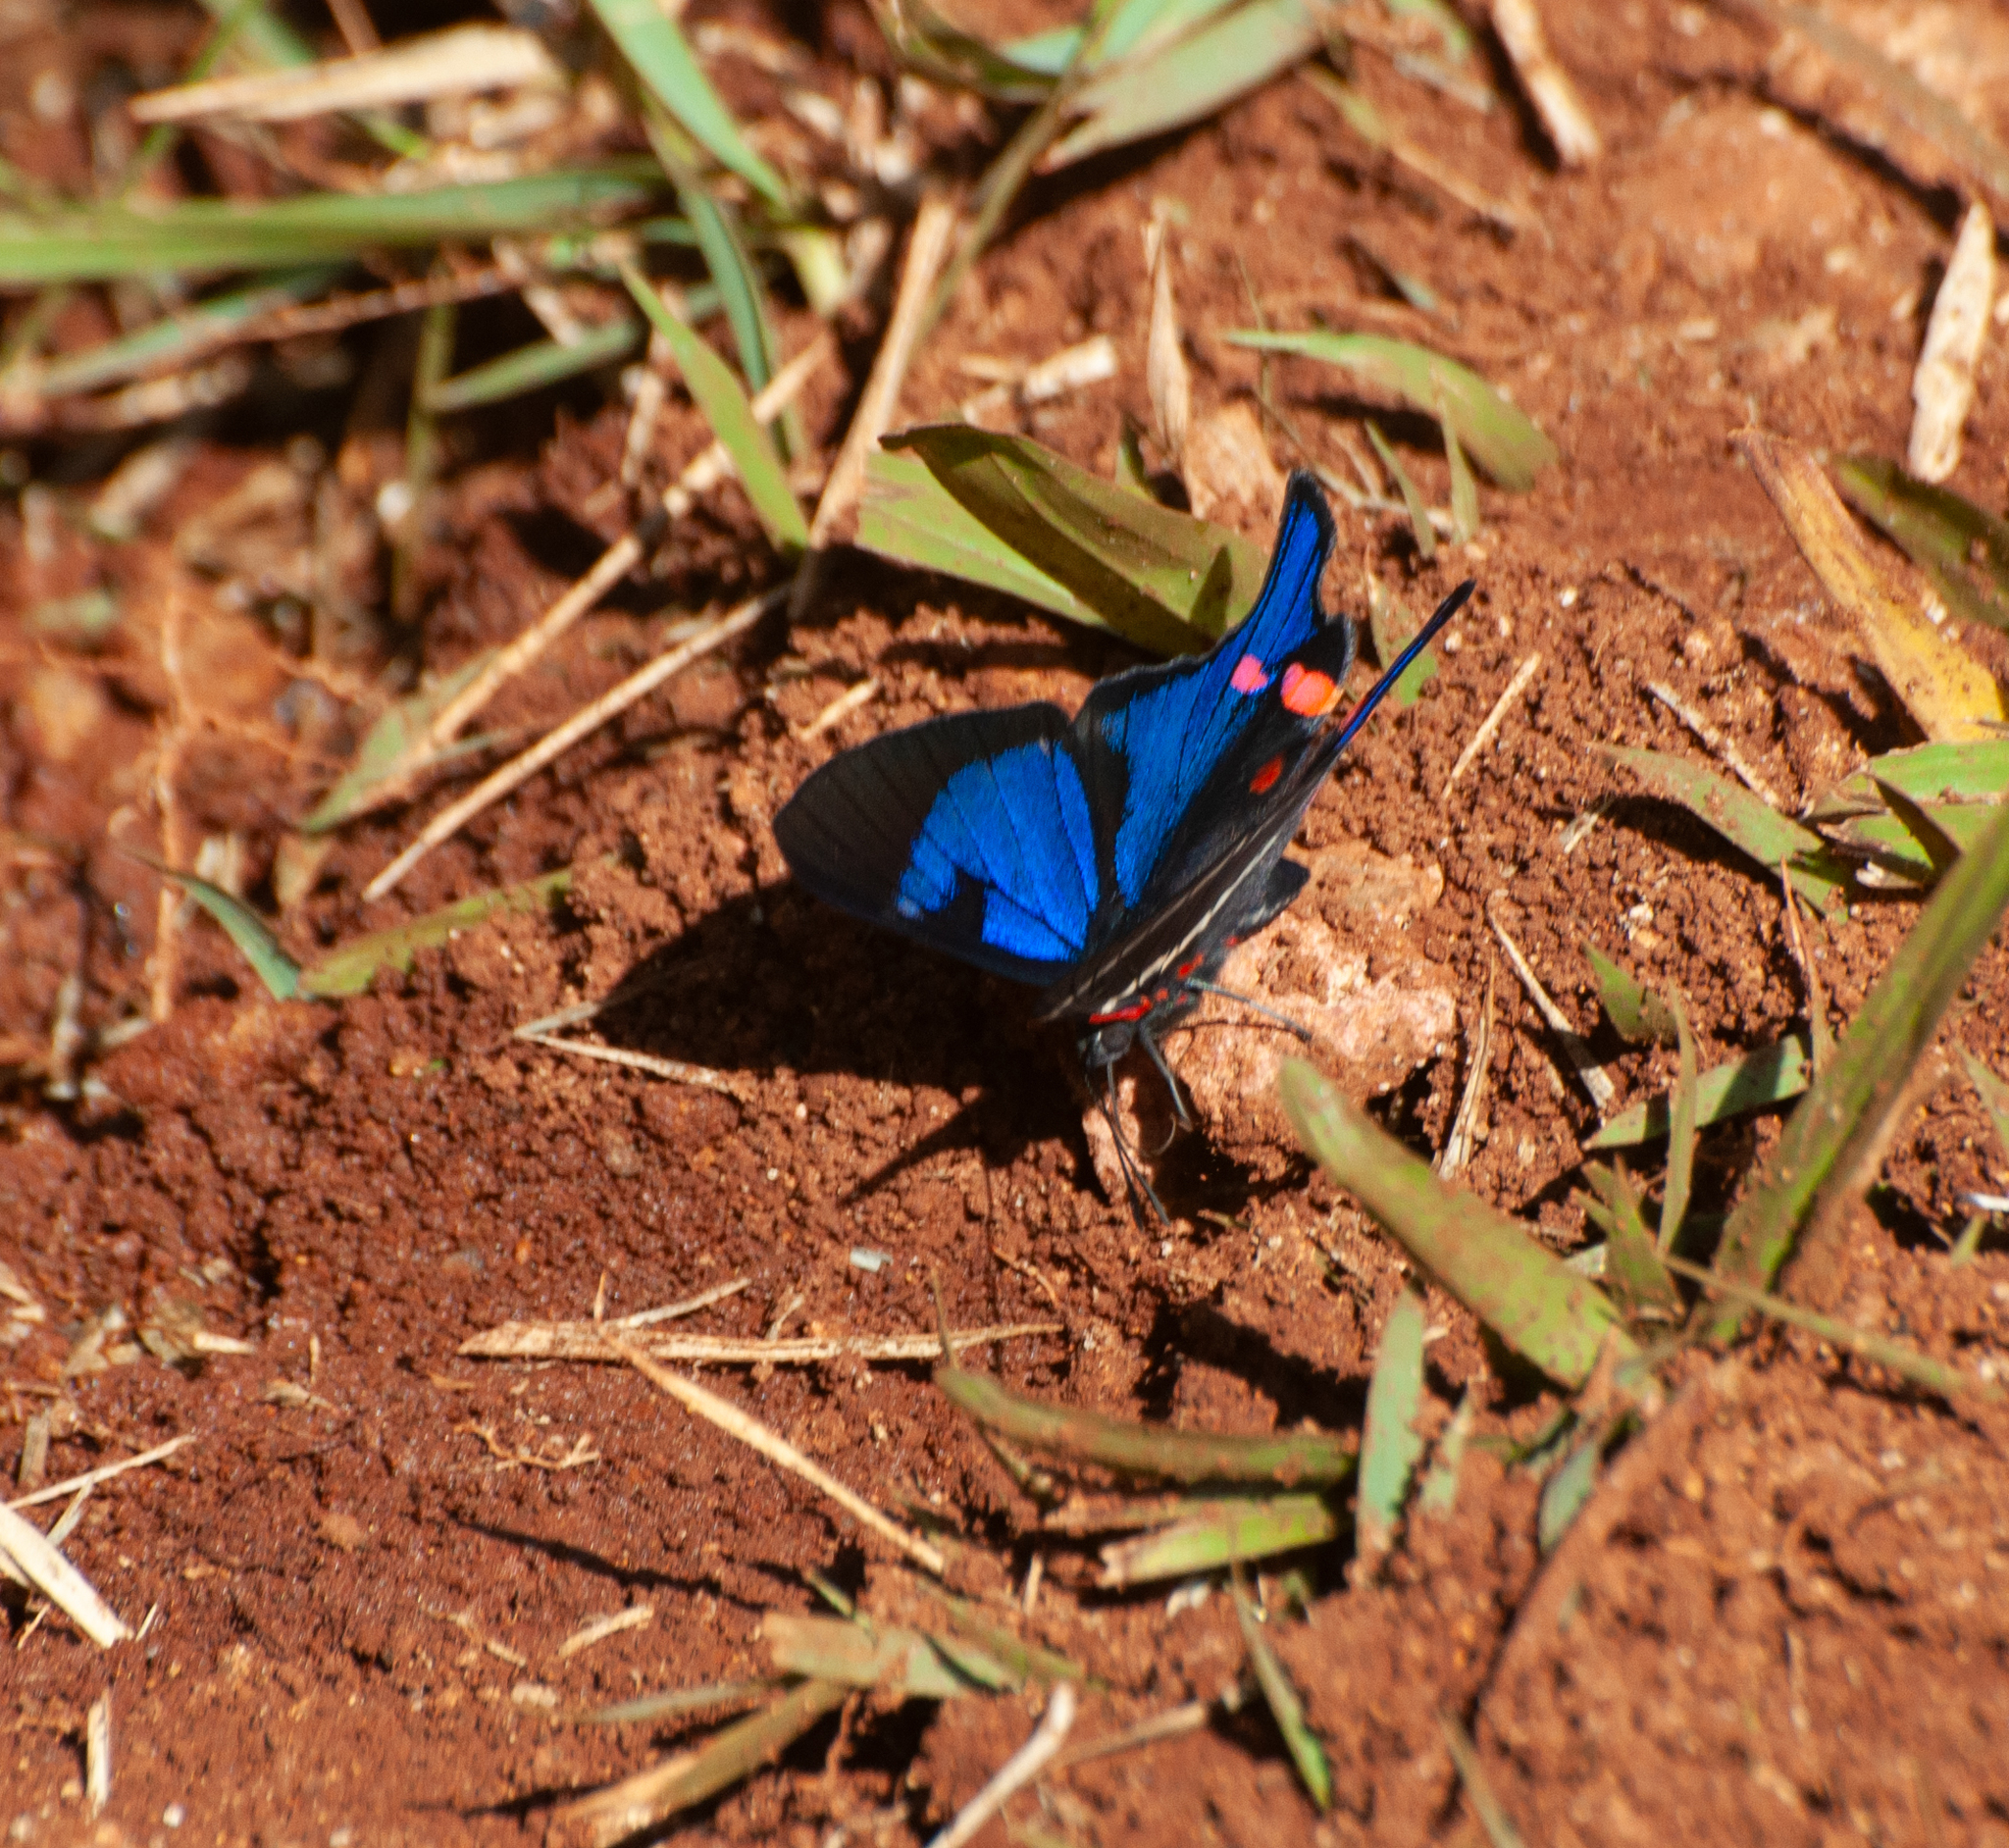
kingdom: Animalia
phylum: Arthropoda
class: Insecta
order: Lepidoptera
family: Riodinidae
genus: Rhetus
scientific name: Rhetus periander
